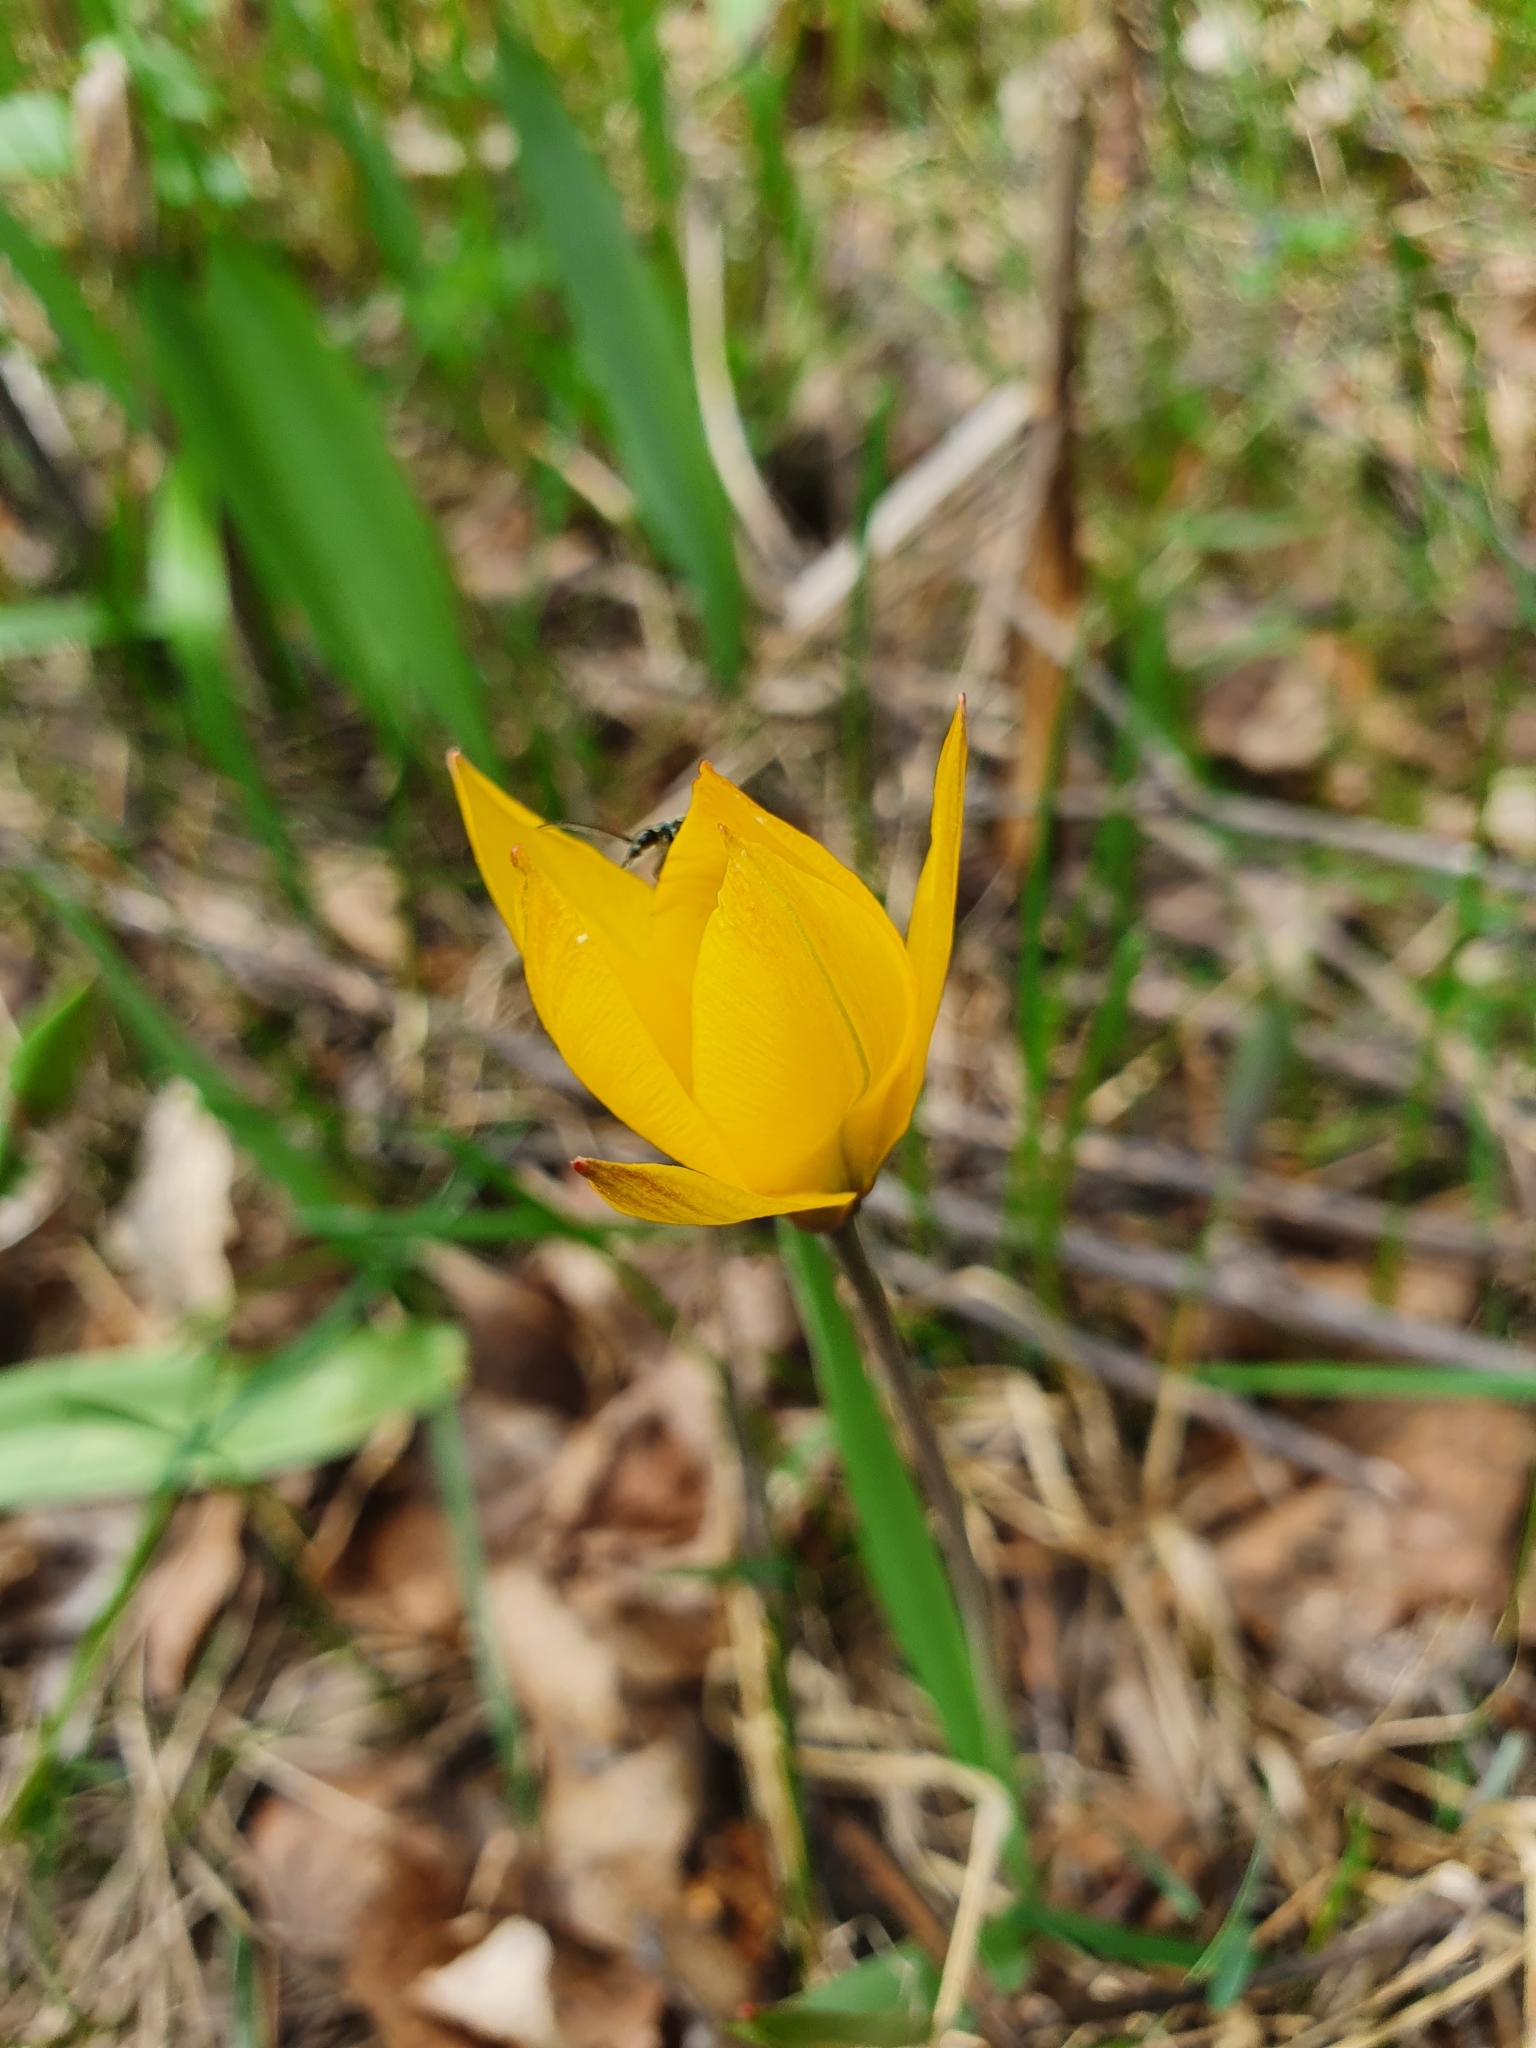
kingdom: Plantae
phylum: Tracheophyta
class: Liliopsida
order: Liliales
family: Liliaceae
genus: Tulipa
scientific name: Tulipa sylvestris
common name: Wild tulip
